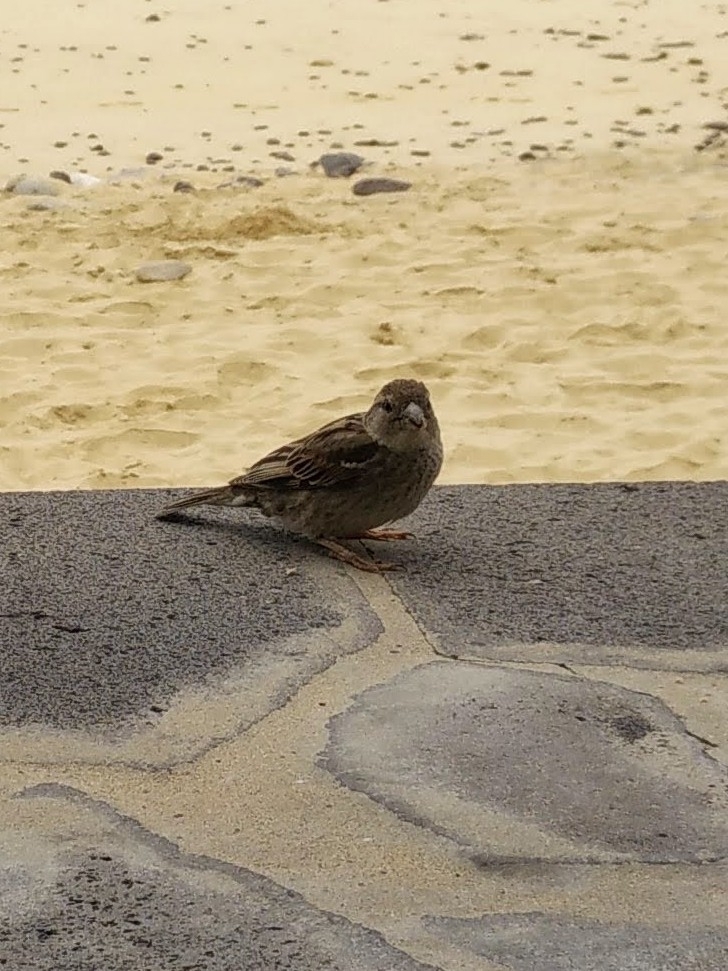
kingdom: Animalia
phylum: Chordata
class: Aves
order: Passeriformes
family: Passeridae
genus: Passer
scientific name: Passer hispaniolensis
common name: Spanish sparrow
